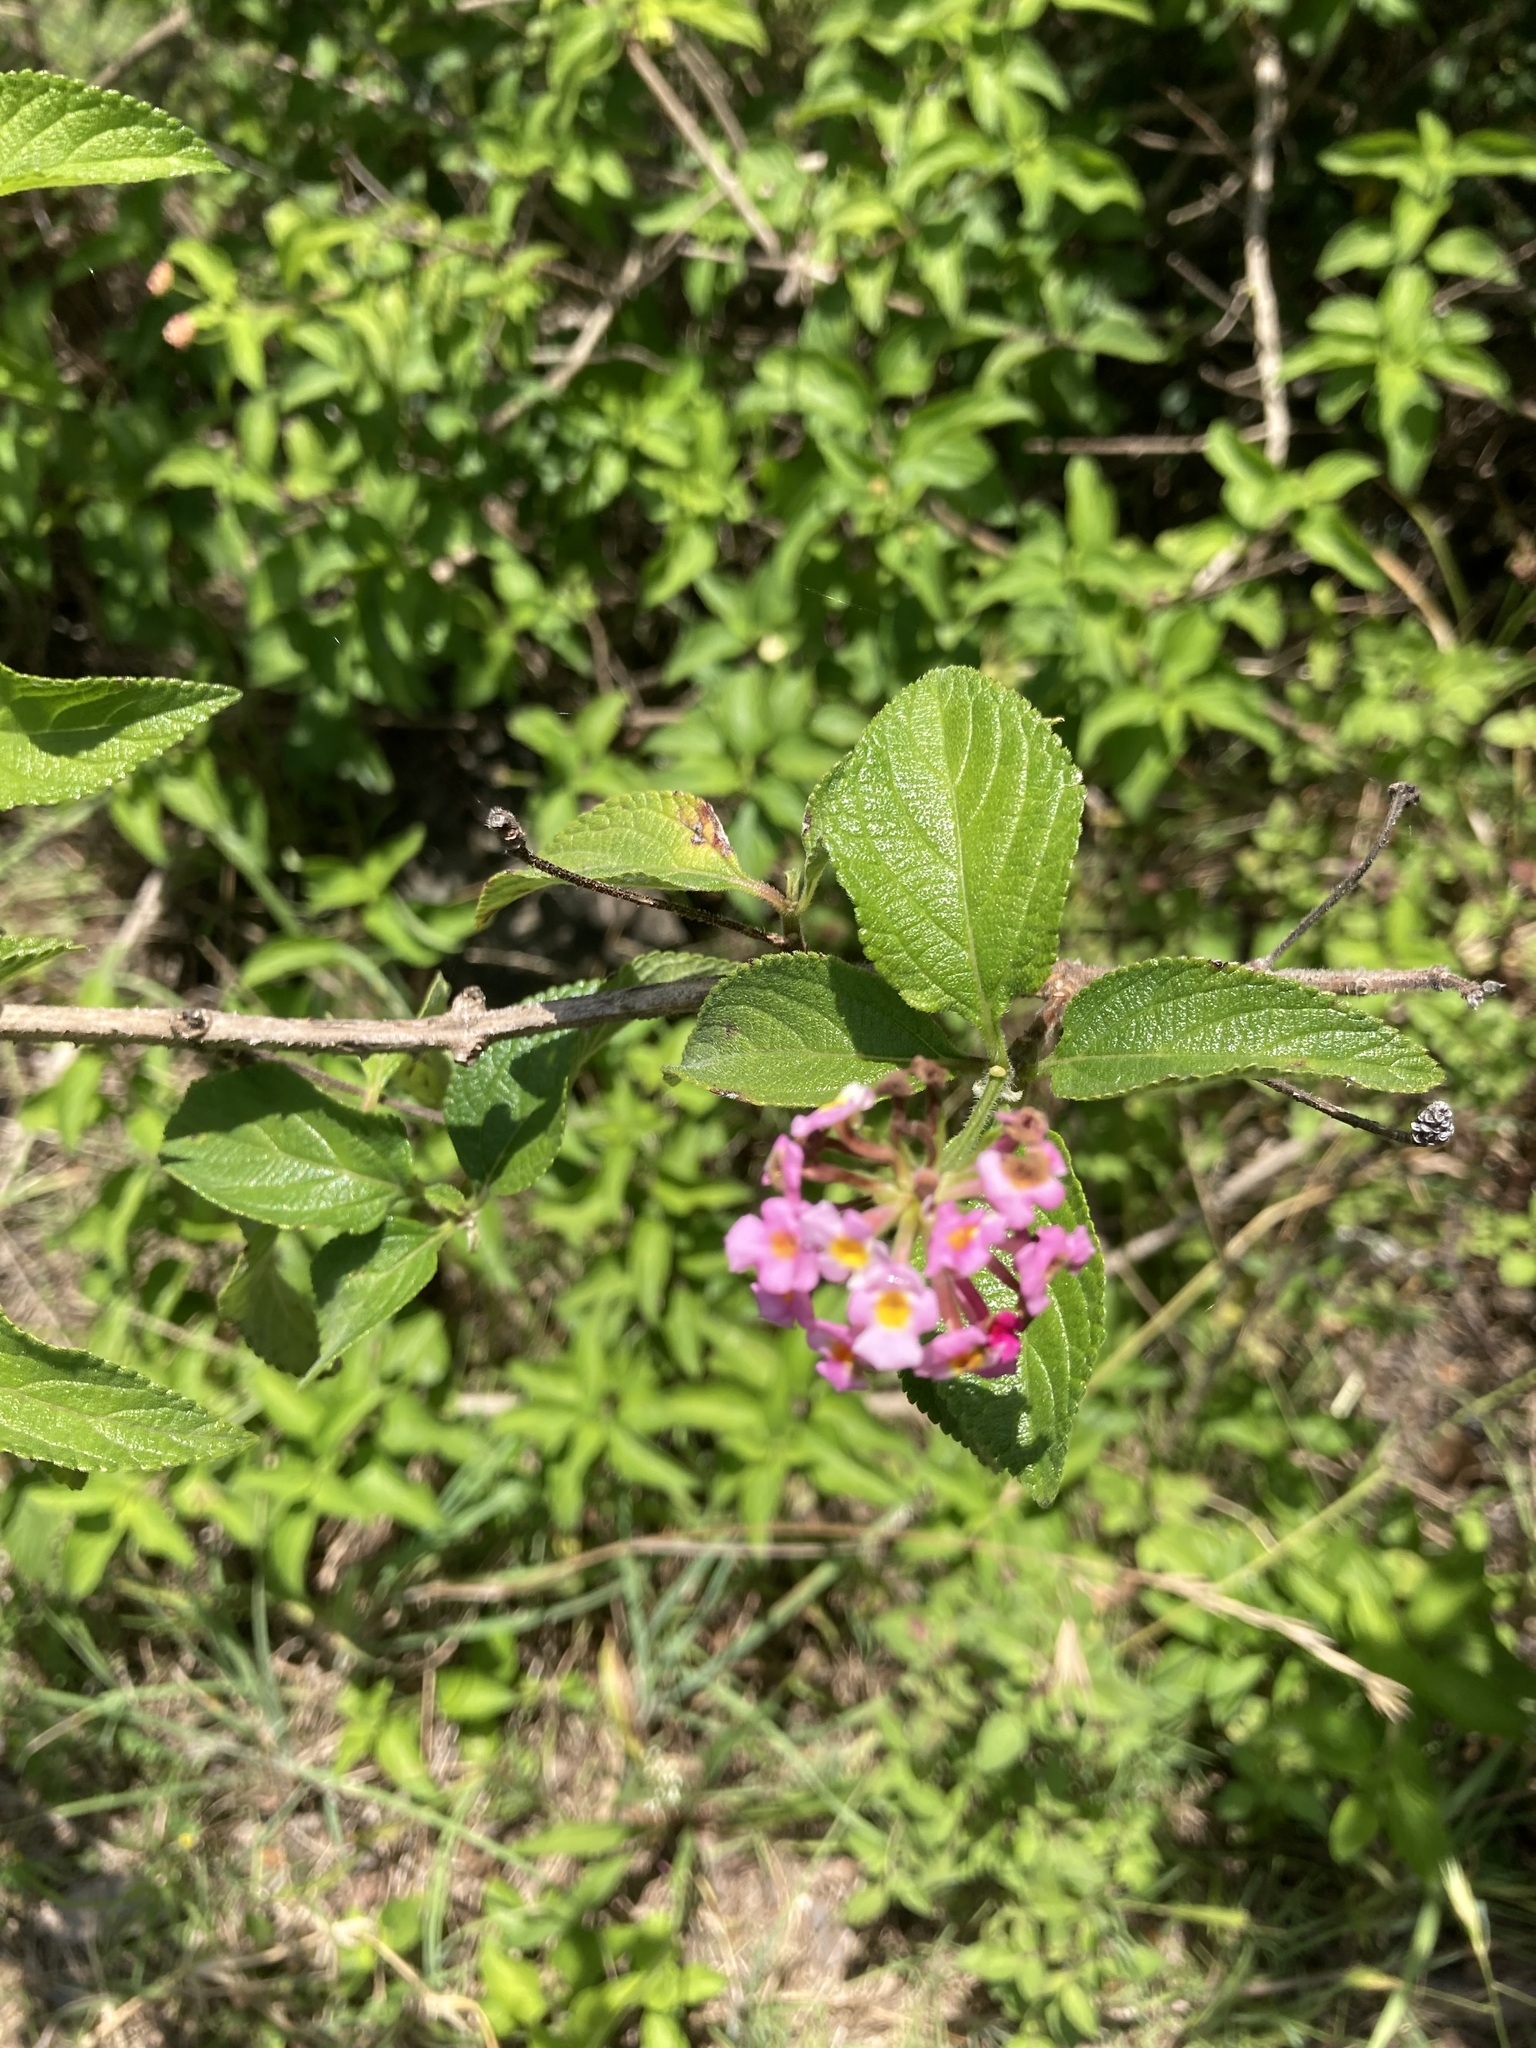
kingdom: Plantae
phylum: Tracheophyta
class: Magnoliopsida
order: Lamiales
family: Verbenaceae
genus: Lantana
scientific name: Lantana camara
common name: Lantana
